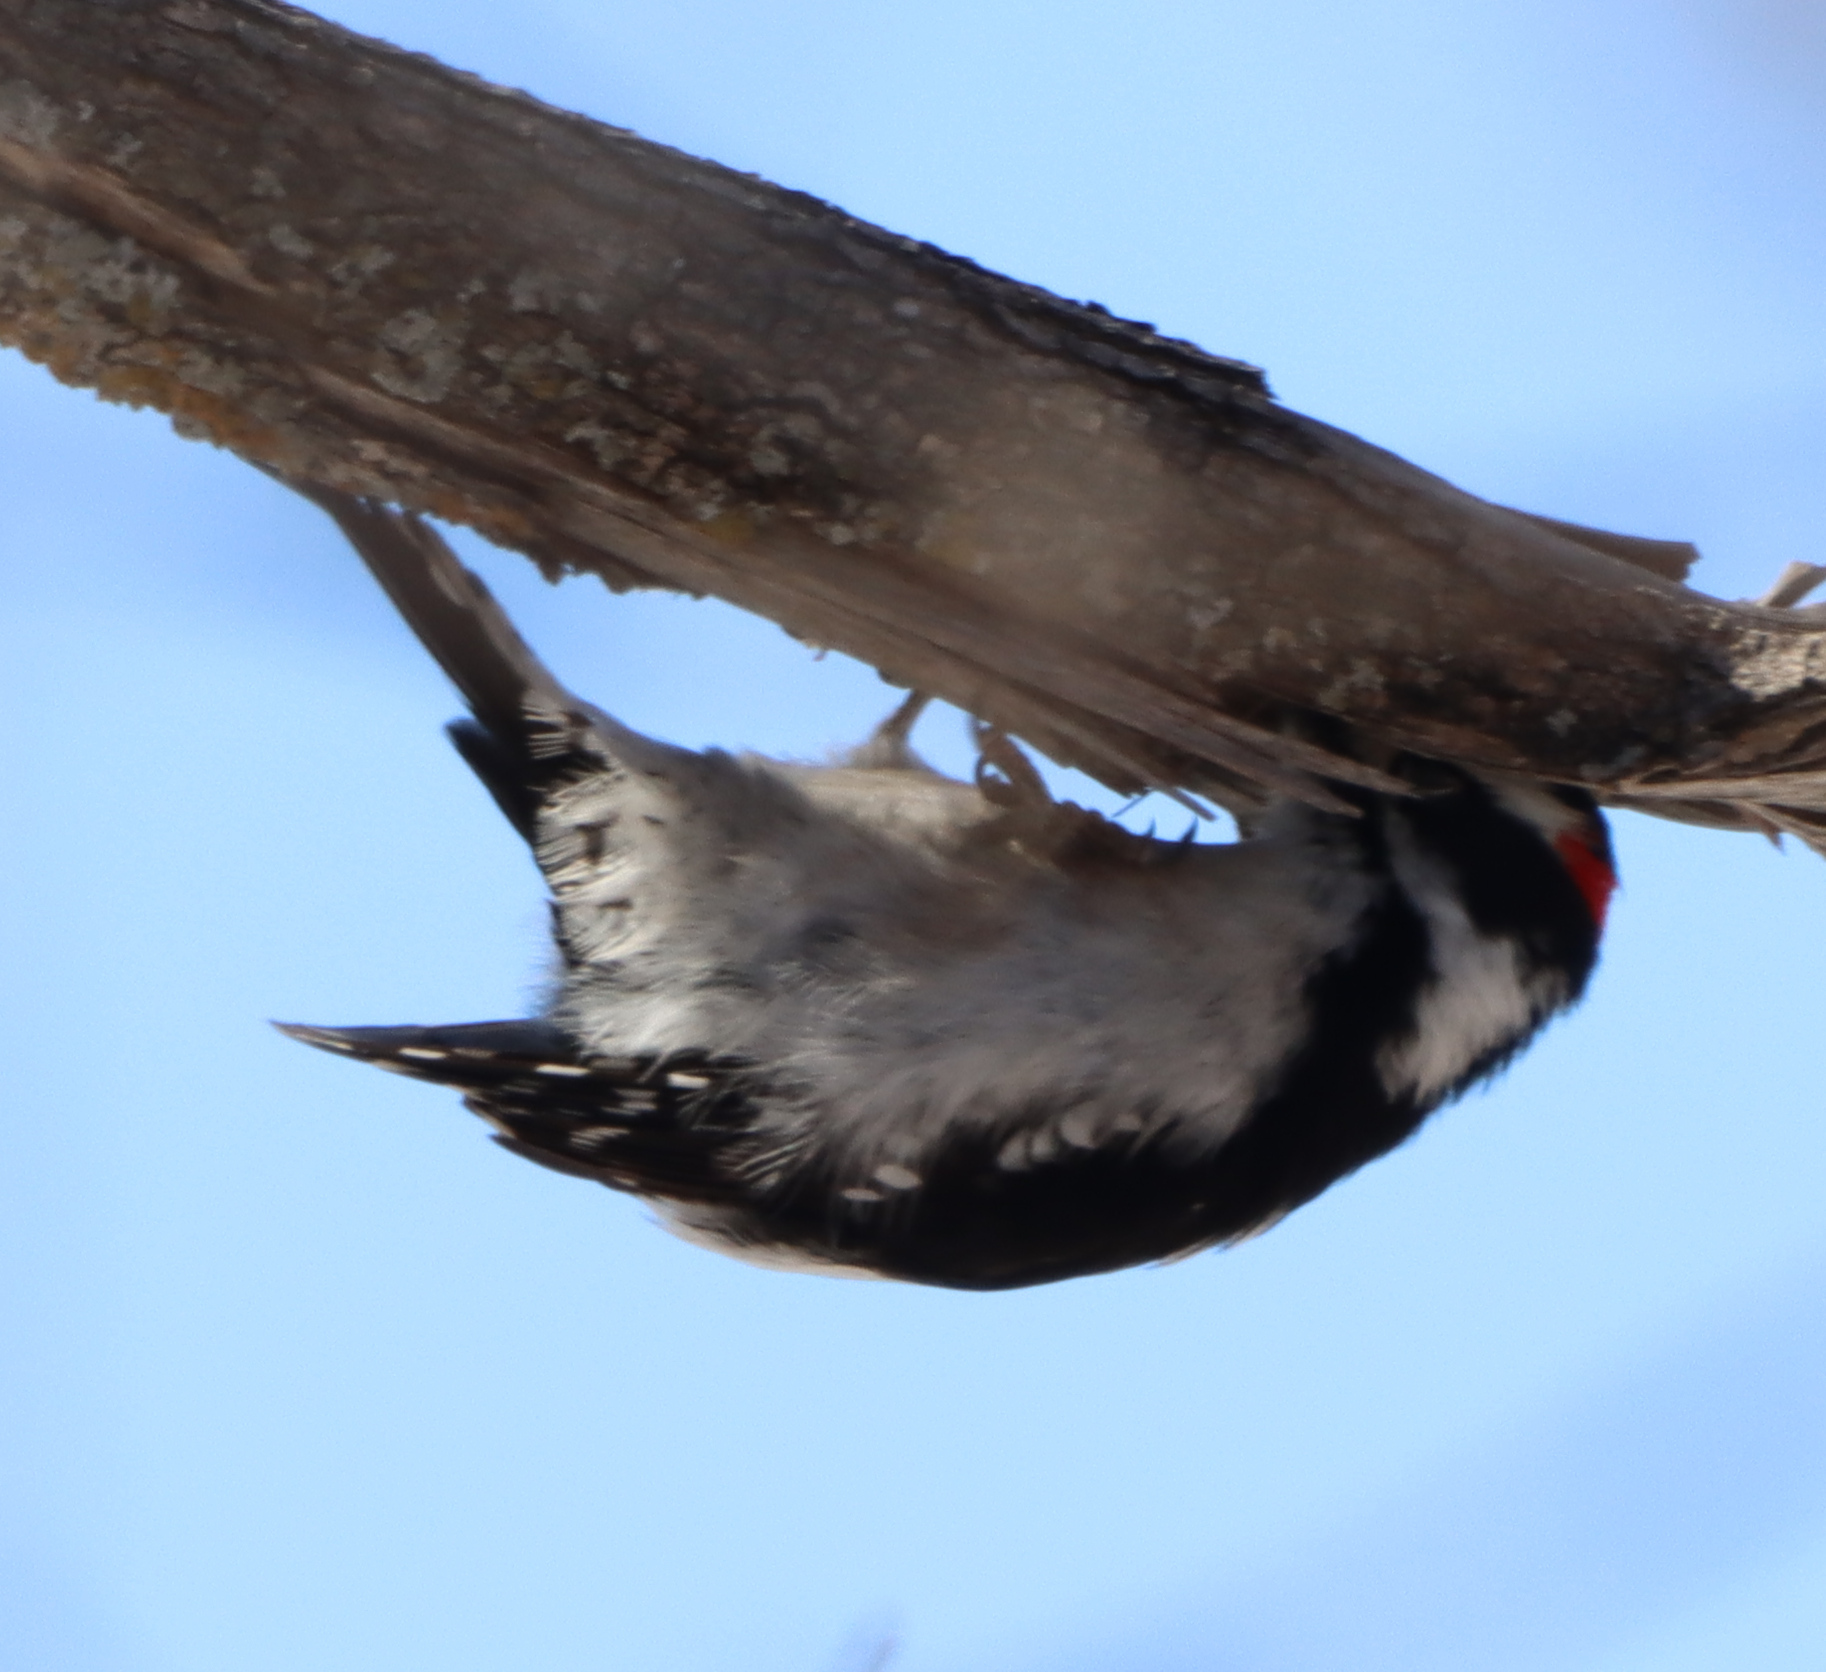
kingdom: Animalia
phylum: Chordata
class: Aves
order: Piciformes
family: Picidae
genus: Dryobates
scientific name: Dryobates pubescens
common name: Downy woodpecker
